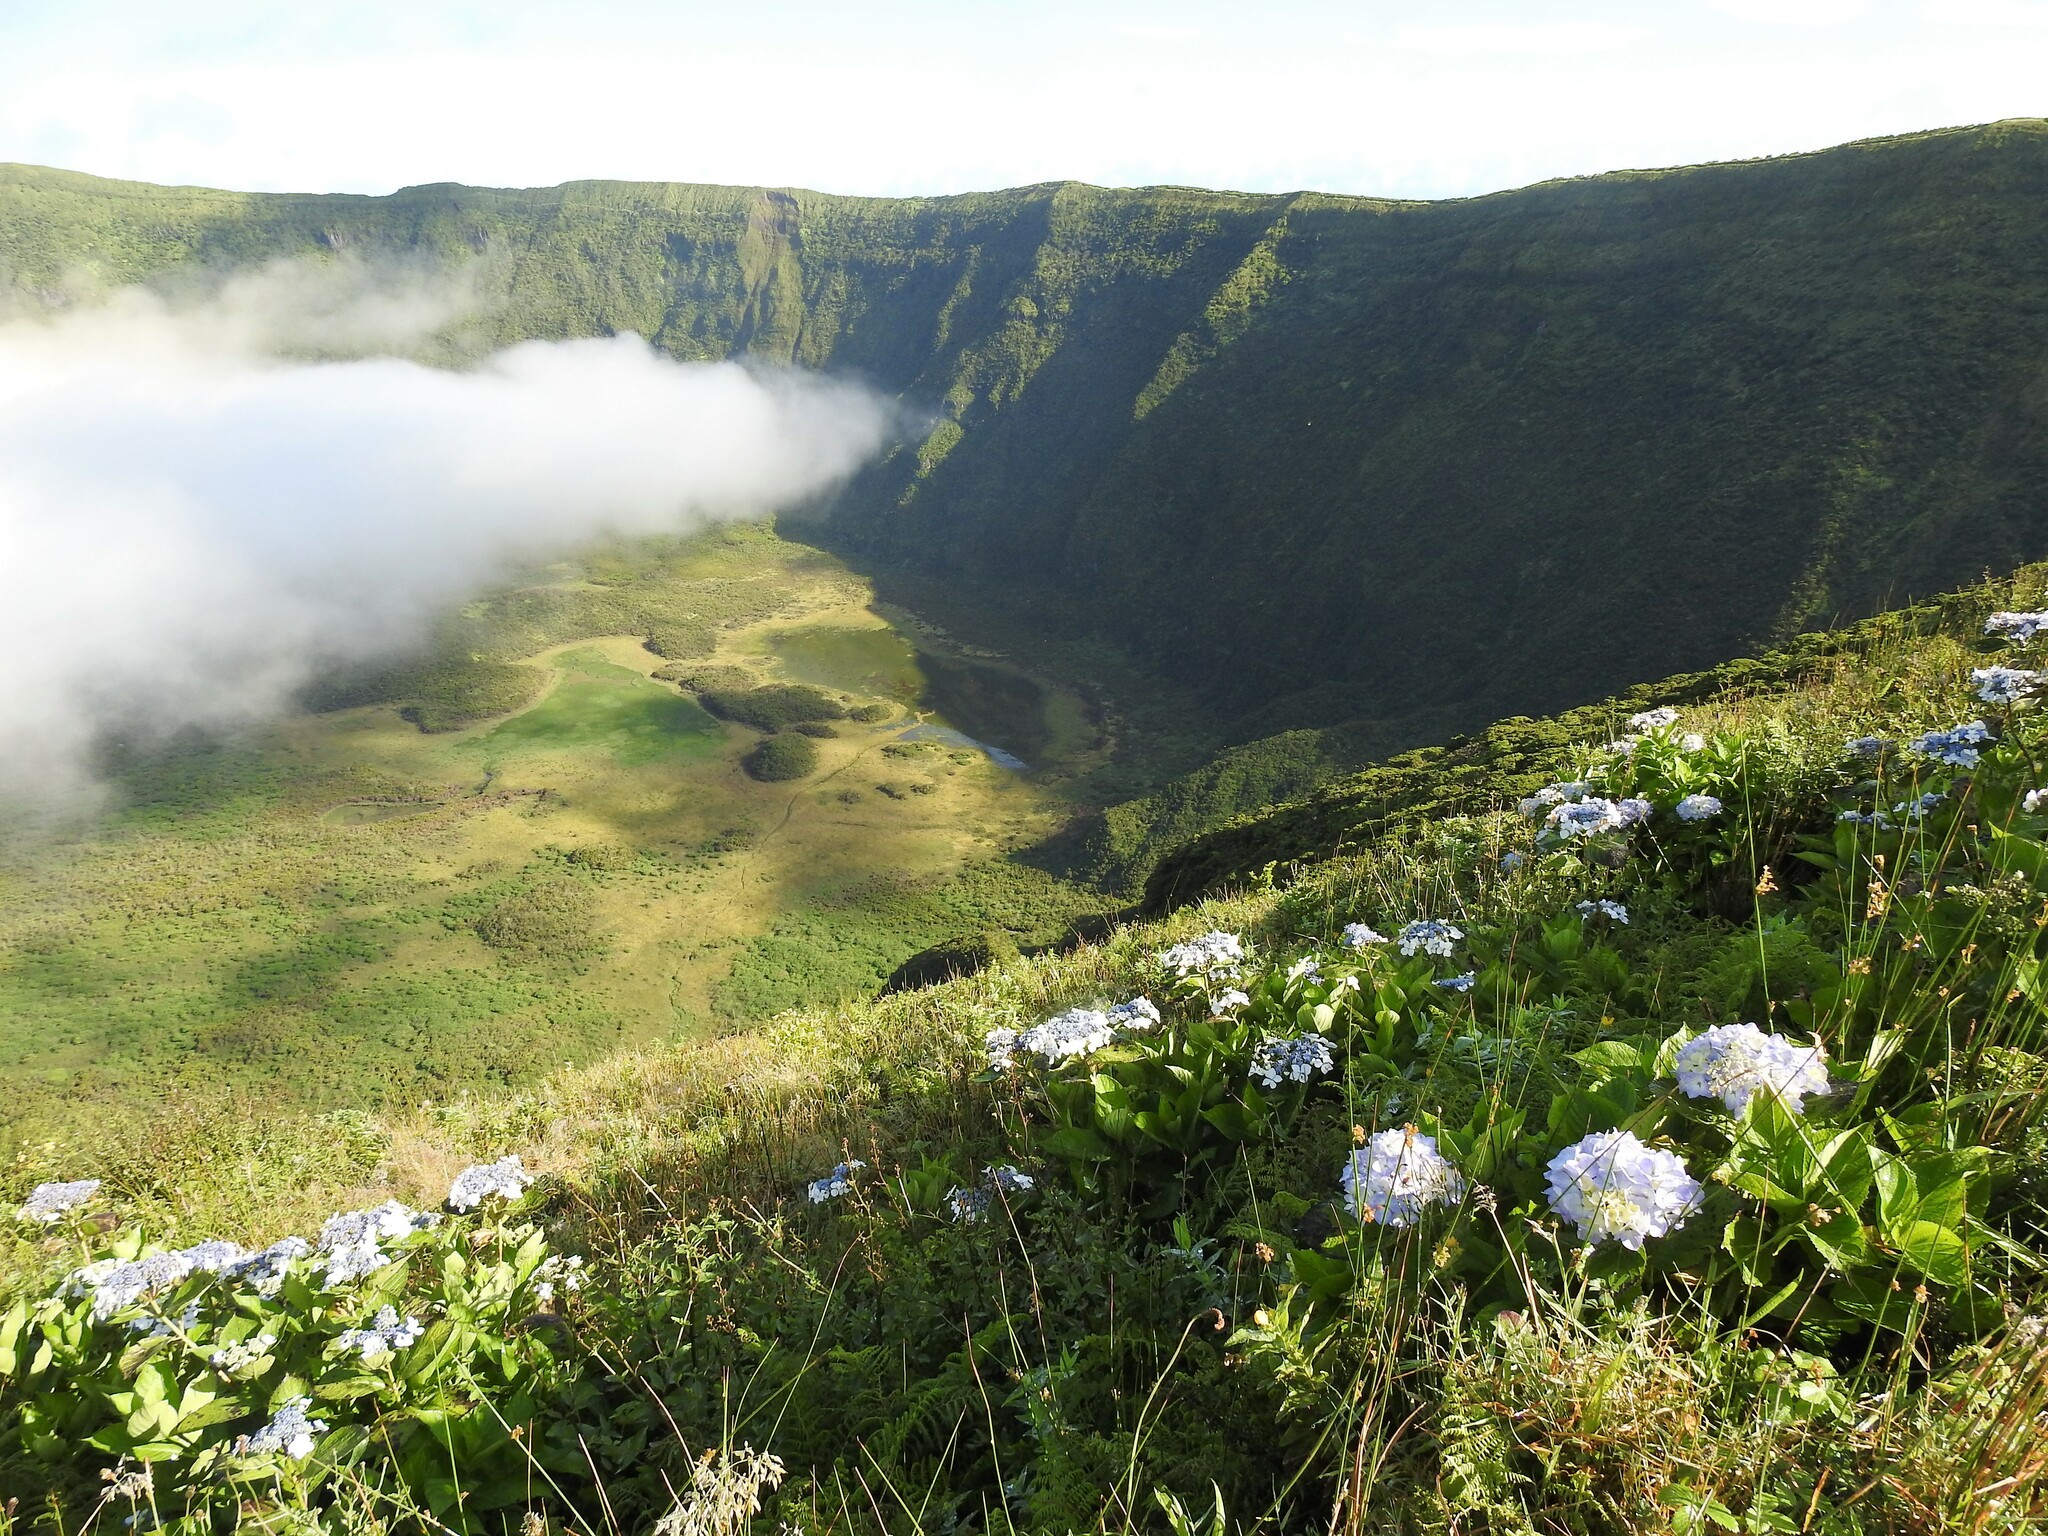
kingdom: Plantae
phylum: Tracheophyta
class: Magnoliopsida
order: Cornales
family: Hydrangeaceae
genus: Hydrangea
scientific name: Hydrangea macrophylla
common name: Hydrangea
